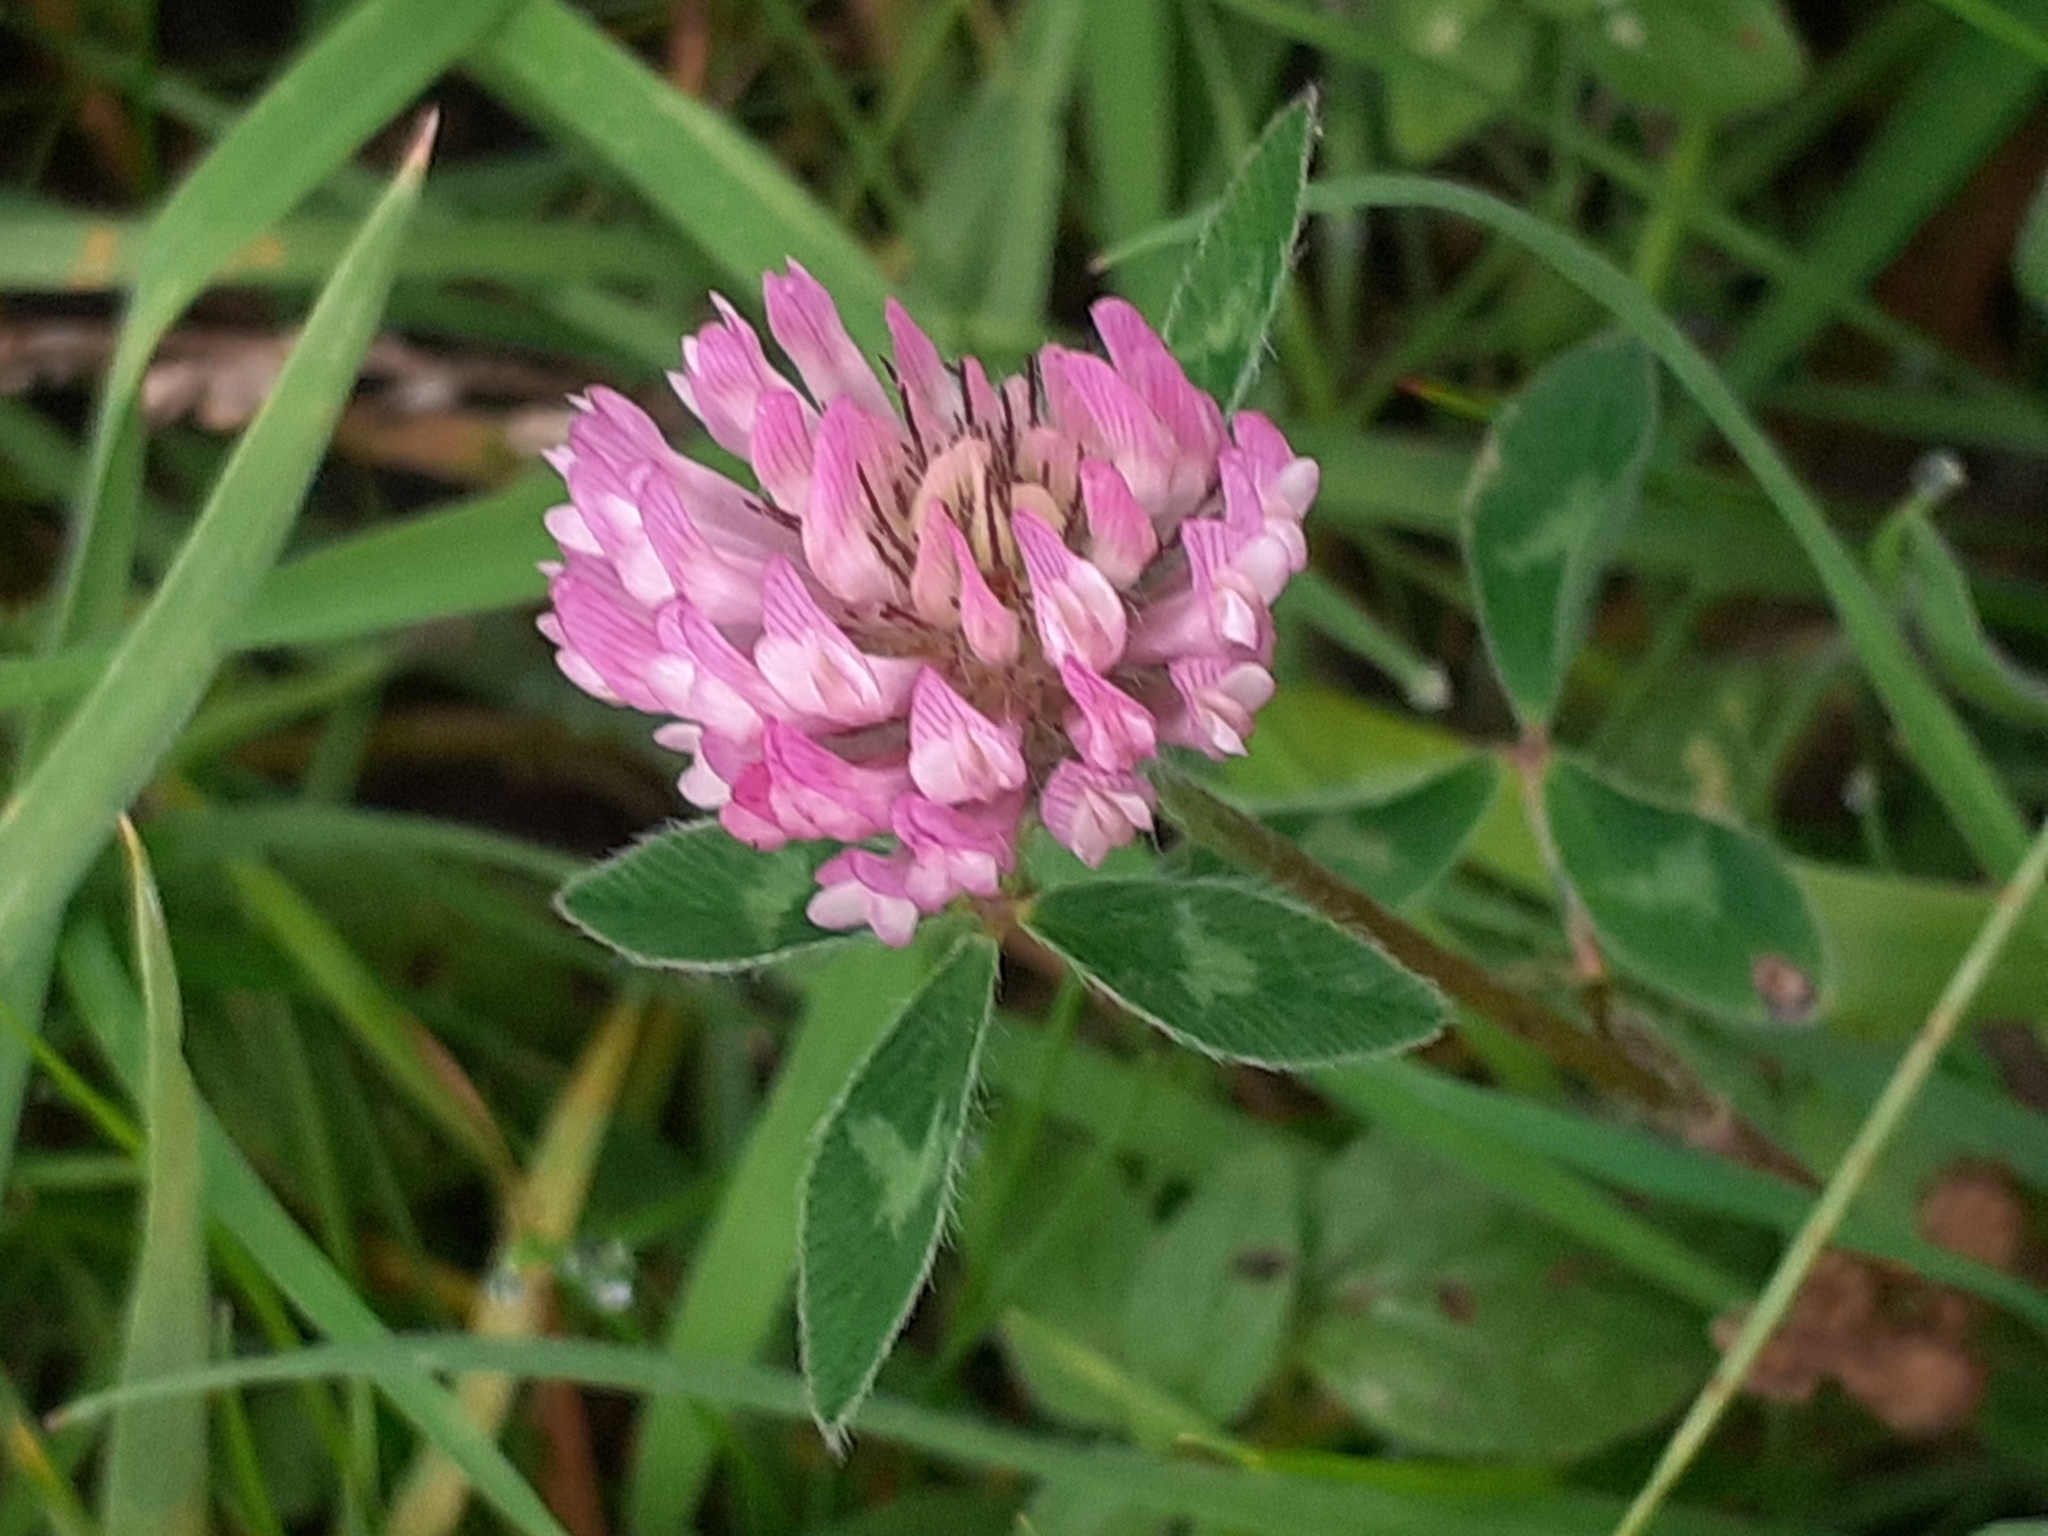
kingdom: Plantae
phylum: Tracheophyta
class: Magnoliopsida
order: Fabales
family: Fabaceae
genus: Trifolium
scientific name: Trifolium pratense
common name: Red clover
